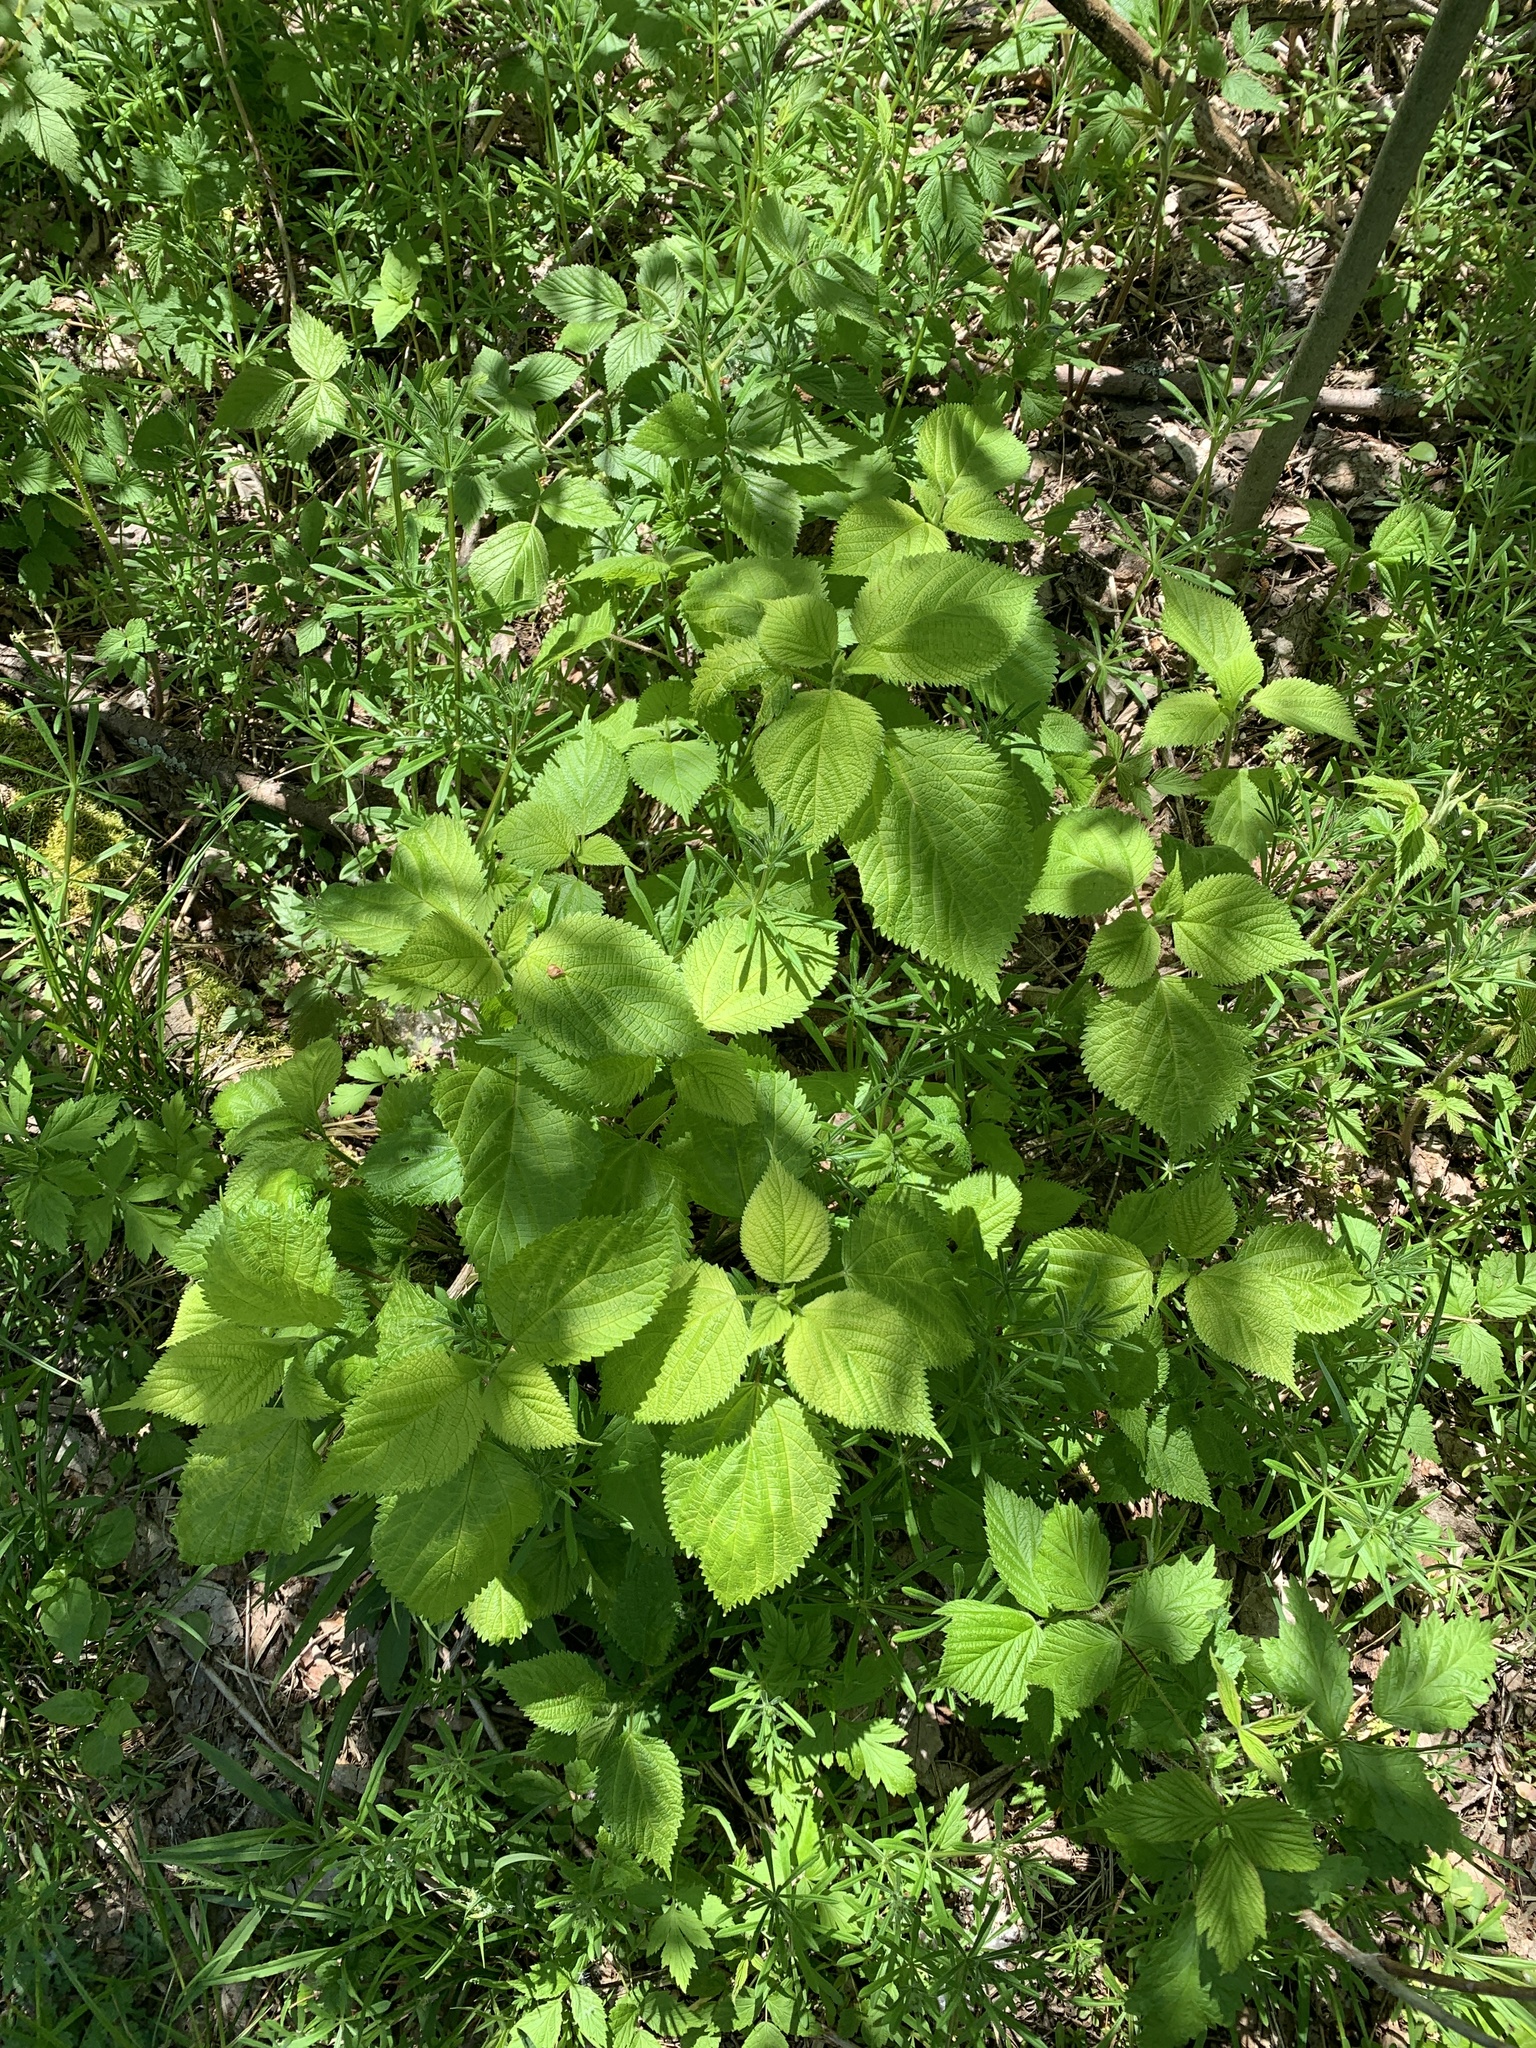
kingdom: Plantae
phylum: Tracheophyta
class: Magnoliopsida
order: Rosales
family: Urticaceae
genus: Laportea
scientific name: Laportea canadensis
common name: Canada nettle
